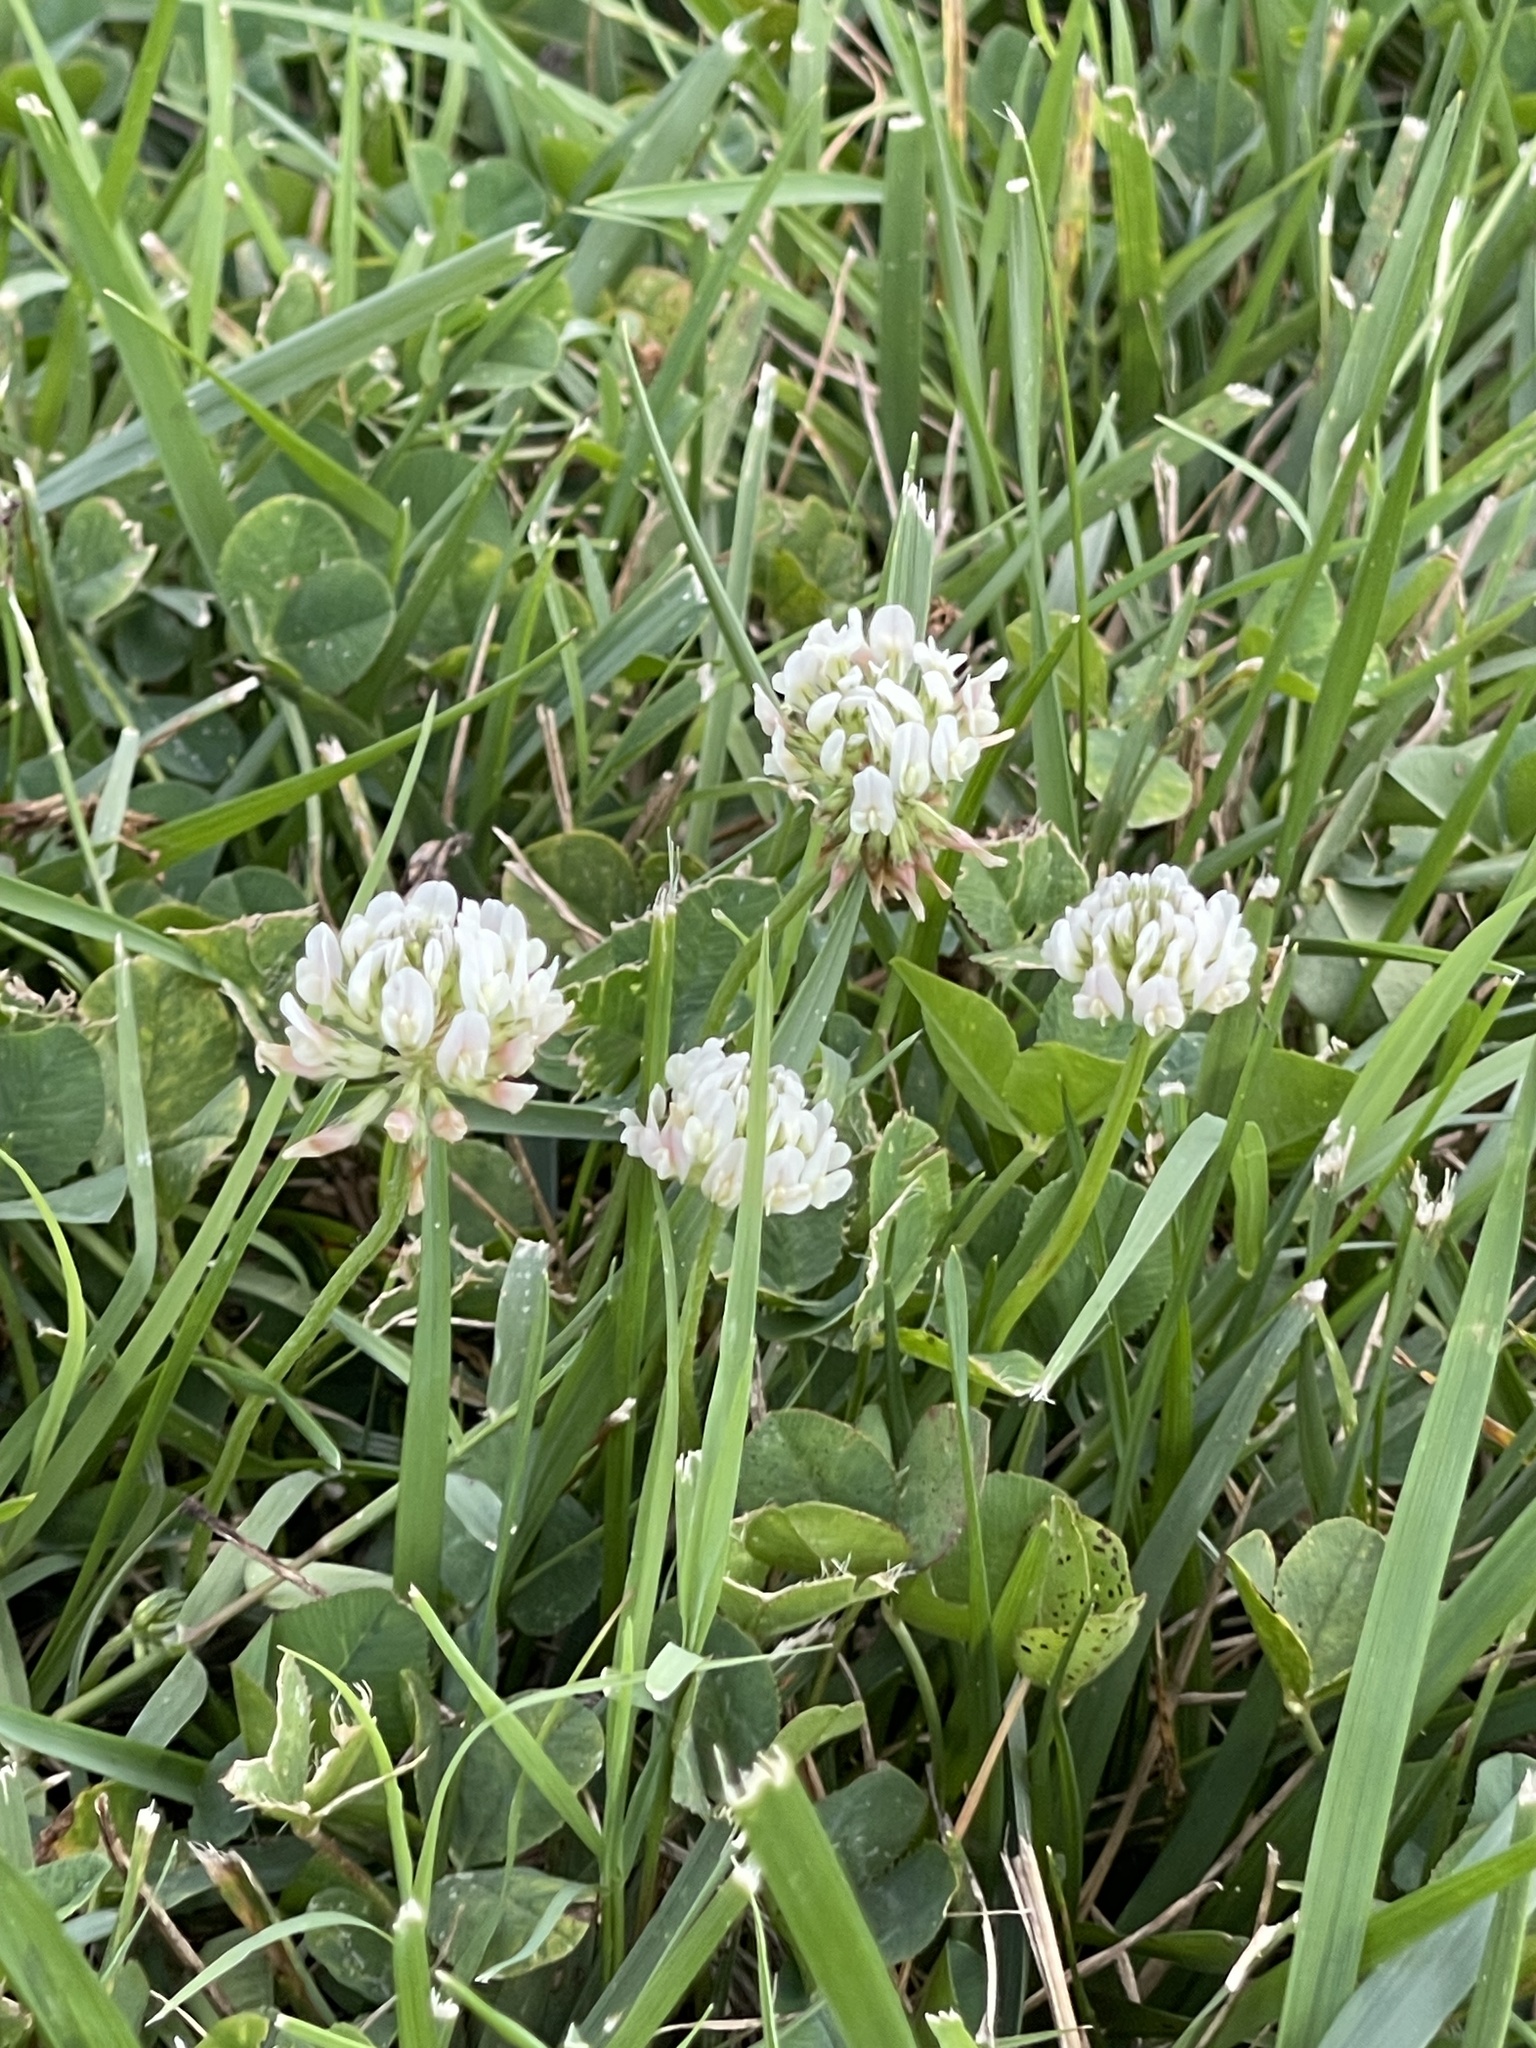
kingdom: Plantae
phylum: Tracheophyta
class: Magnoliopsida
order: Fabales
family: Fabaceae
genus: Trifolium
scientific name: Trifolium repens
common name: White clover
